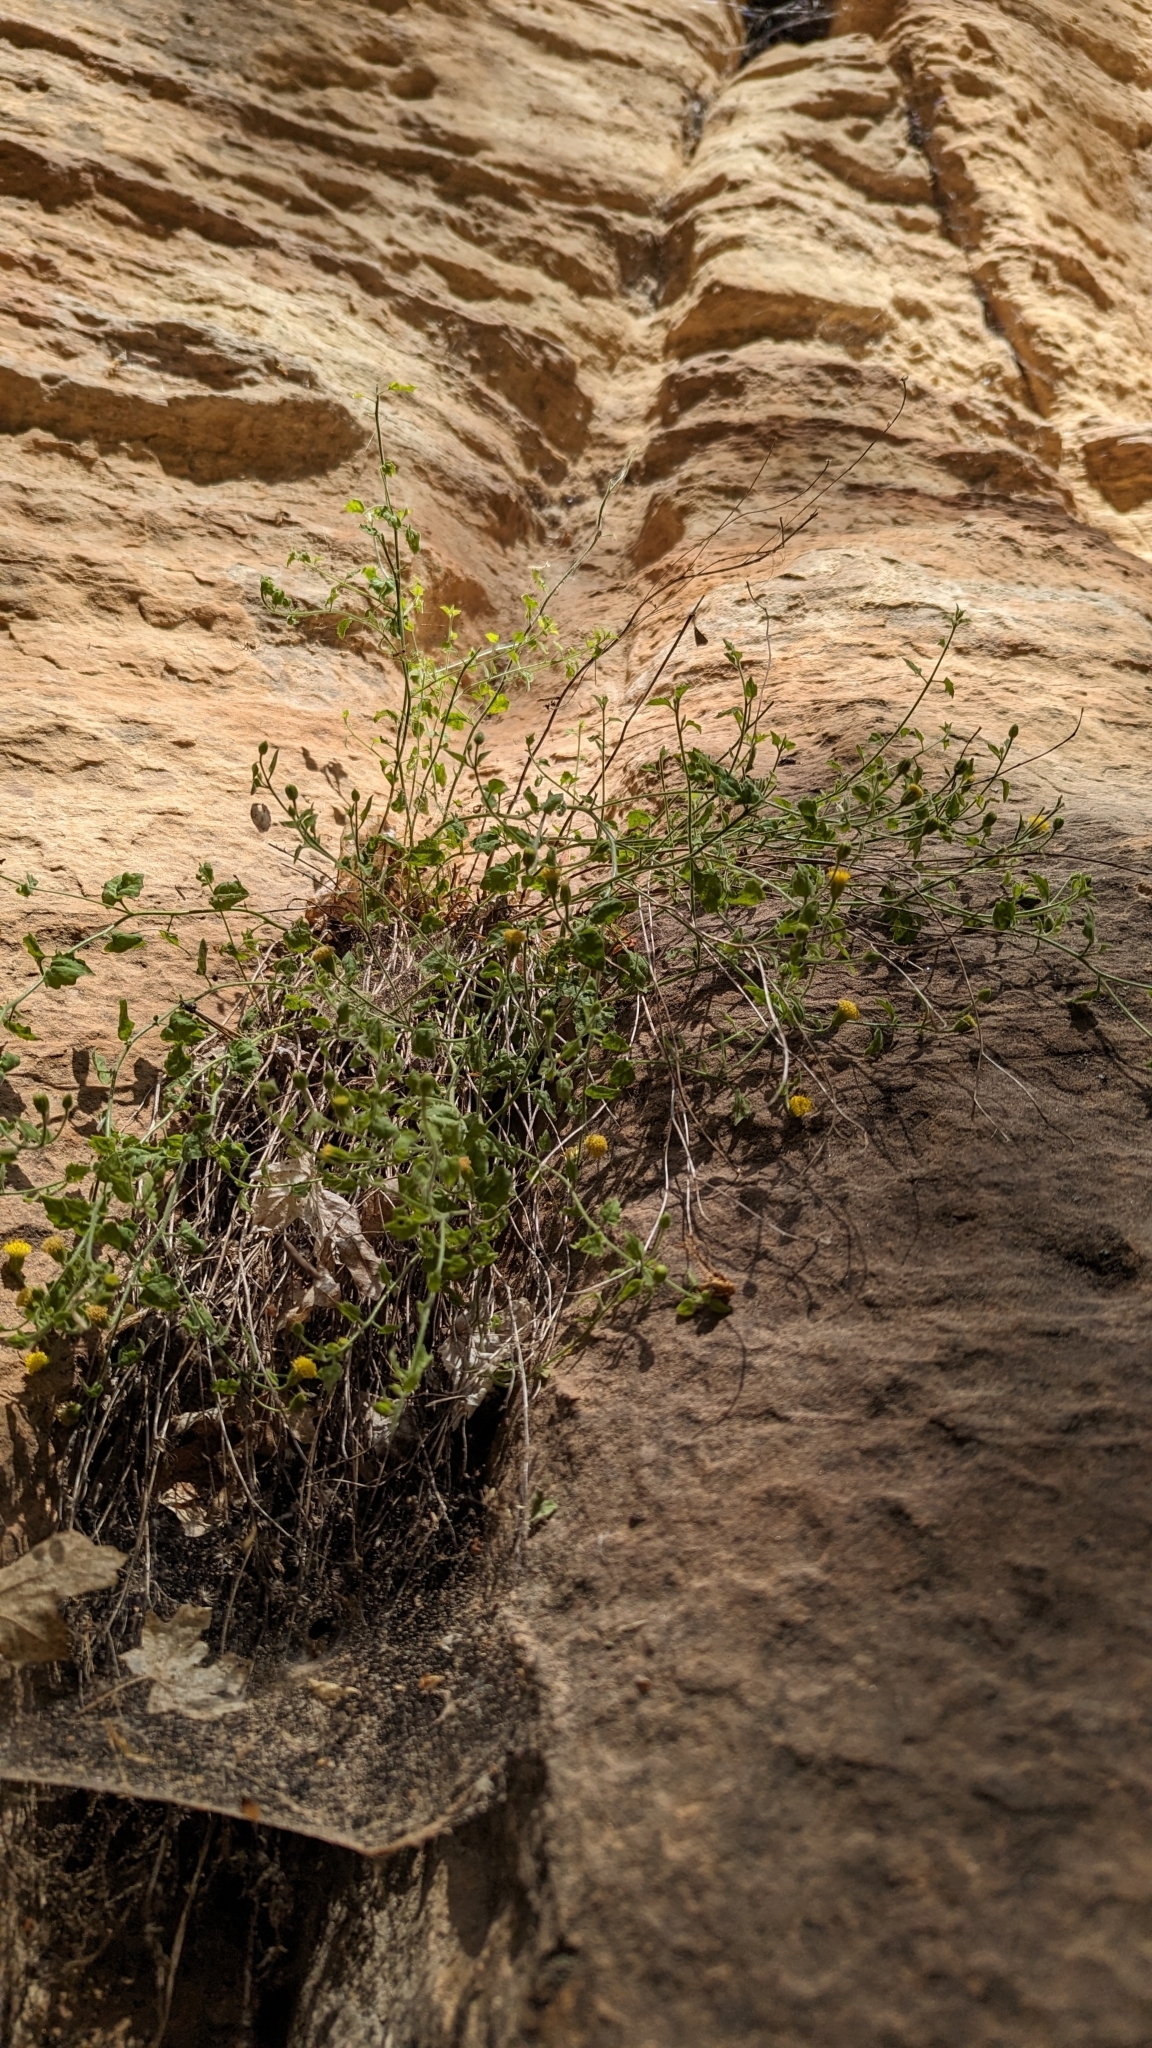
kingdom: Plantae
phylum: Tracheophyta
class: Magnoliopsida
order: Asterales
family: Asteraceae
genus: Laphamia
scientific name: Laphamia sanchezii
